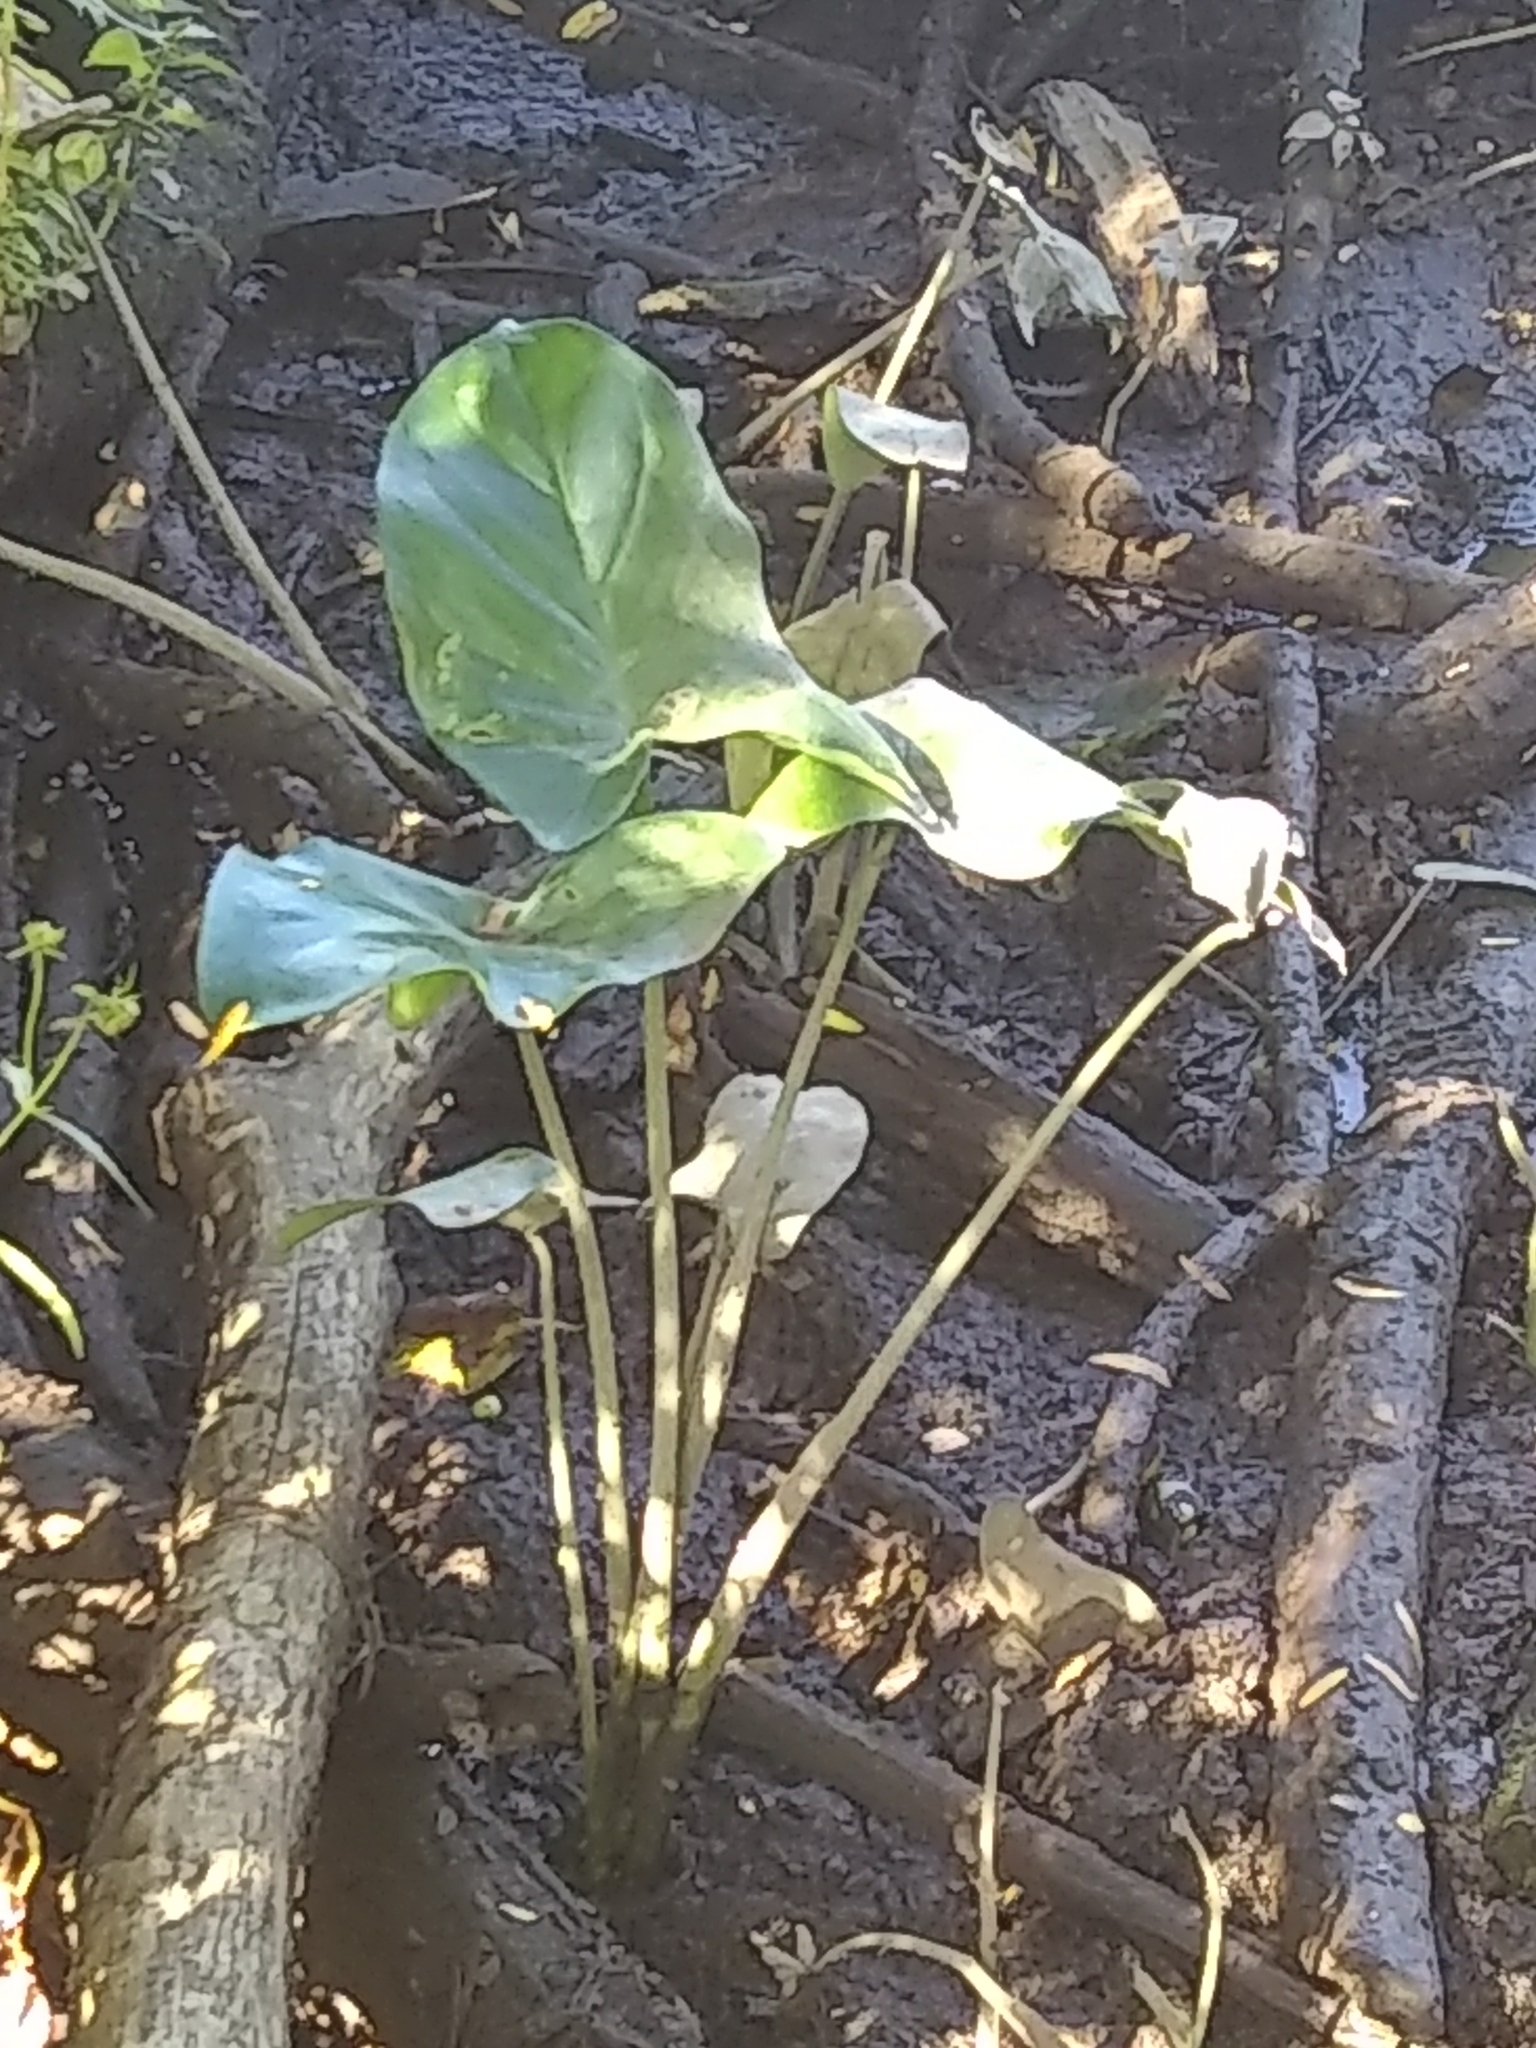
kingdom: Plantae
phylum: Tracheophyta
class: Liliopsida
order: Alismatales
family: Araceae
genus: Peltandra
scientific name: Peltandra virginica
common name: Arrow arum
